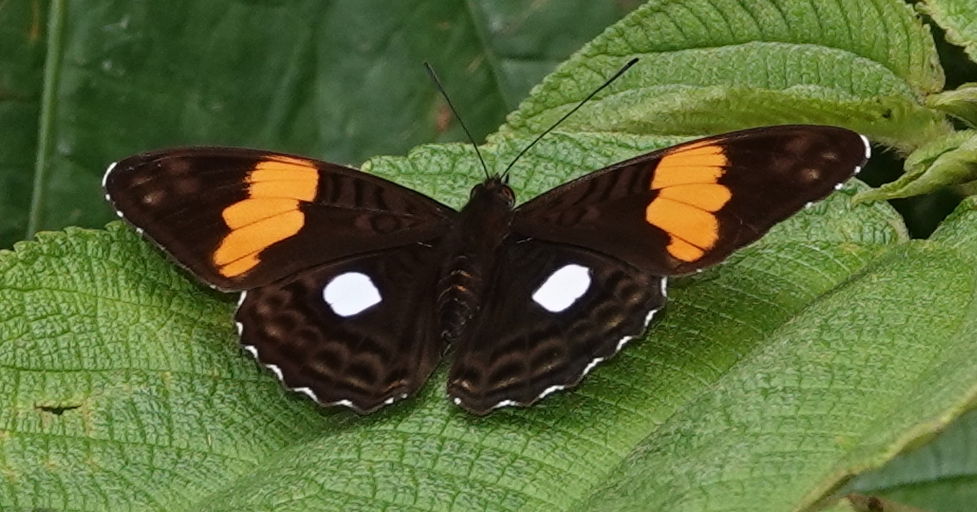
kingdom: Animalia
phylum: Arthropoda
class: Insecta
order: Lepidoptera
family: Nymphalidae
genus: Limenitis
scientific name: Limenitis leucophthalma
